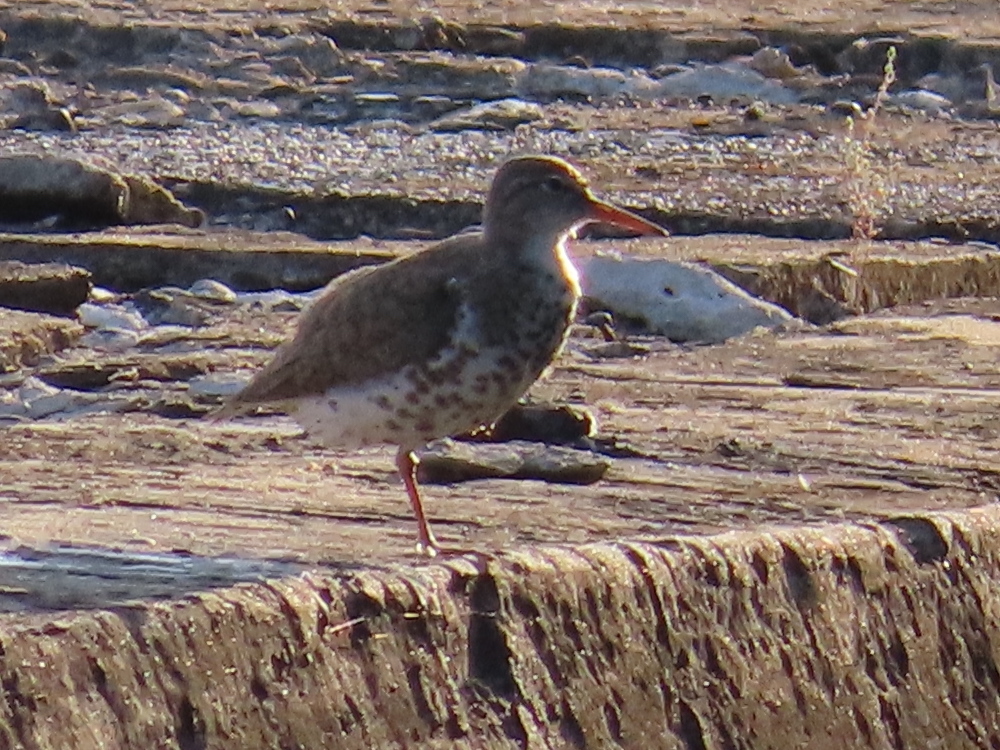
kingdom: Animalia
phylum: Chordata
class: Aves
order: Charadriiformes
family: Scolopacidae
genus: Actitis
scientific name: Actitis macularius
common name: Spotted sandpiper
